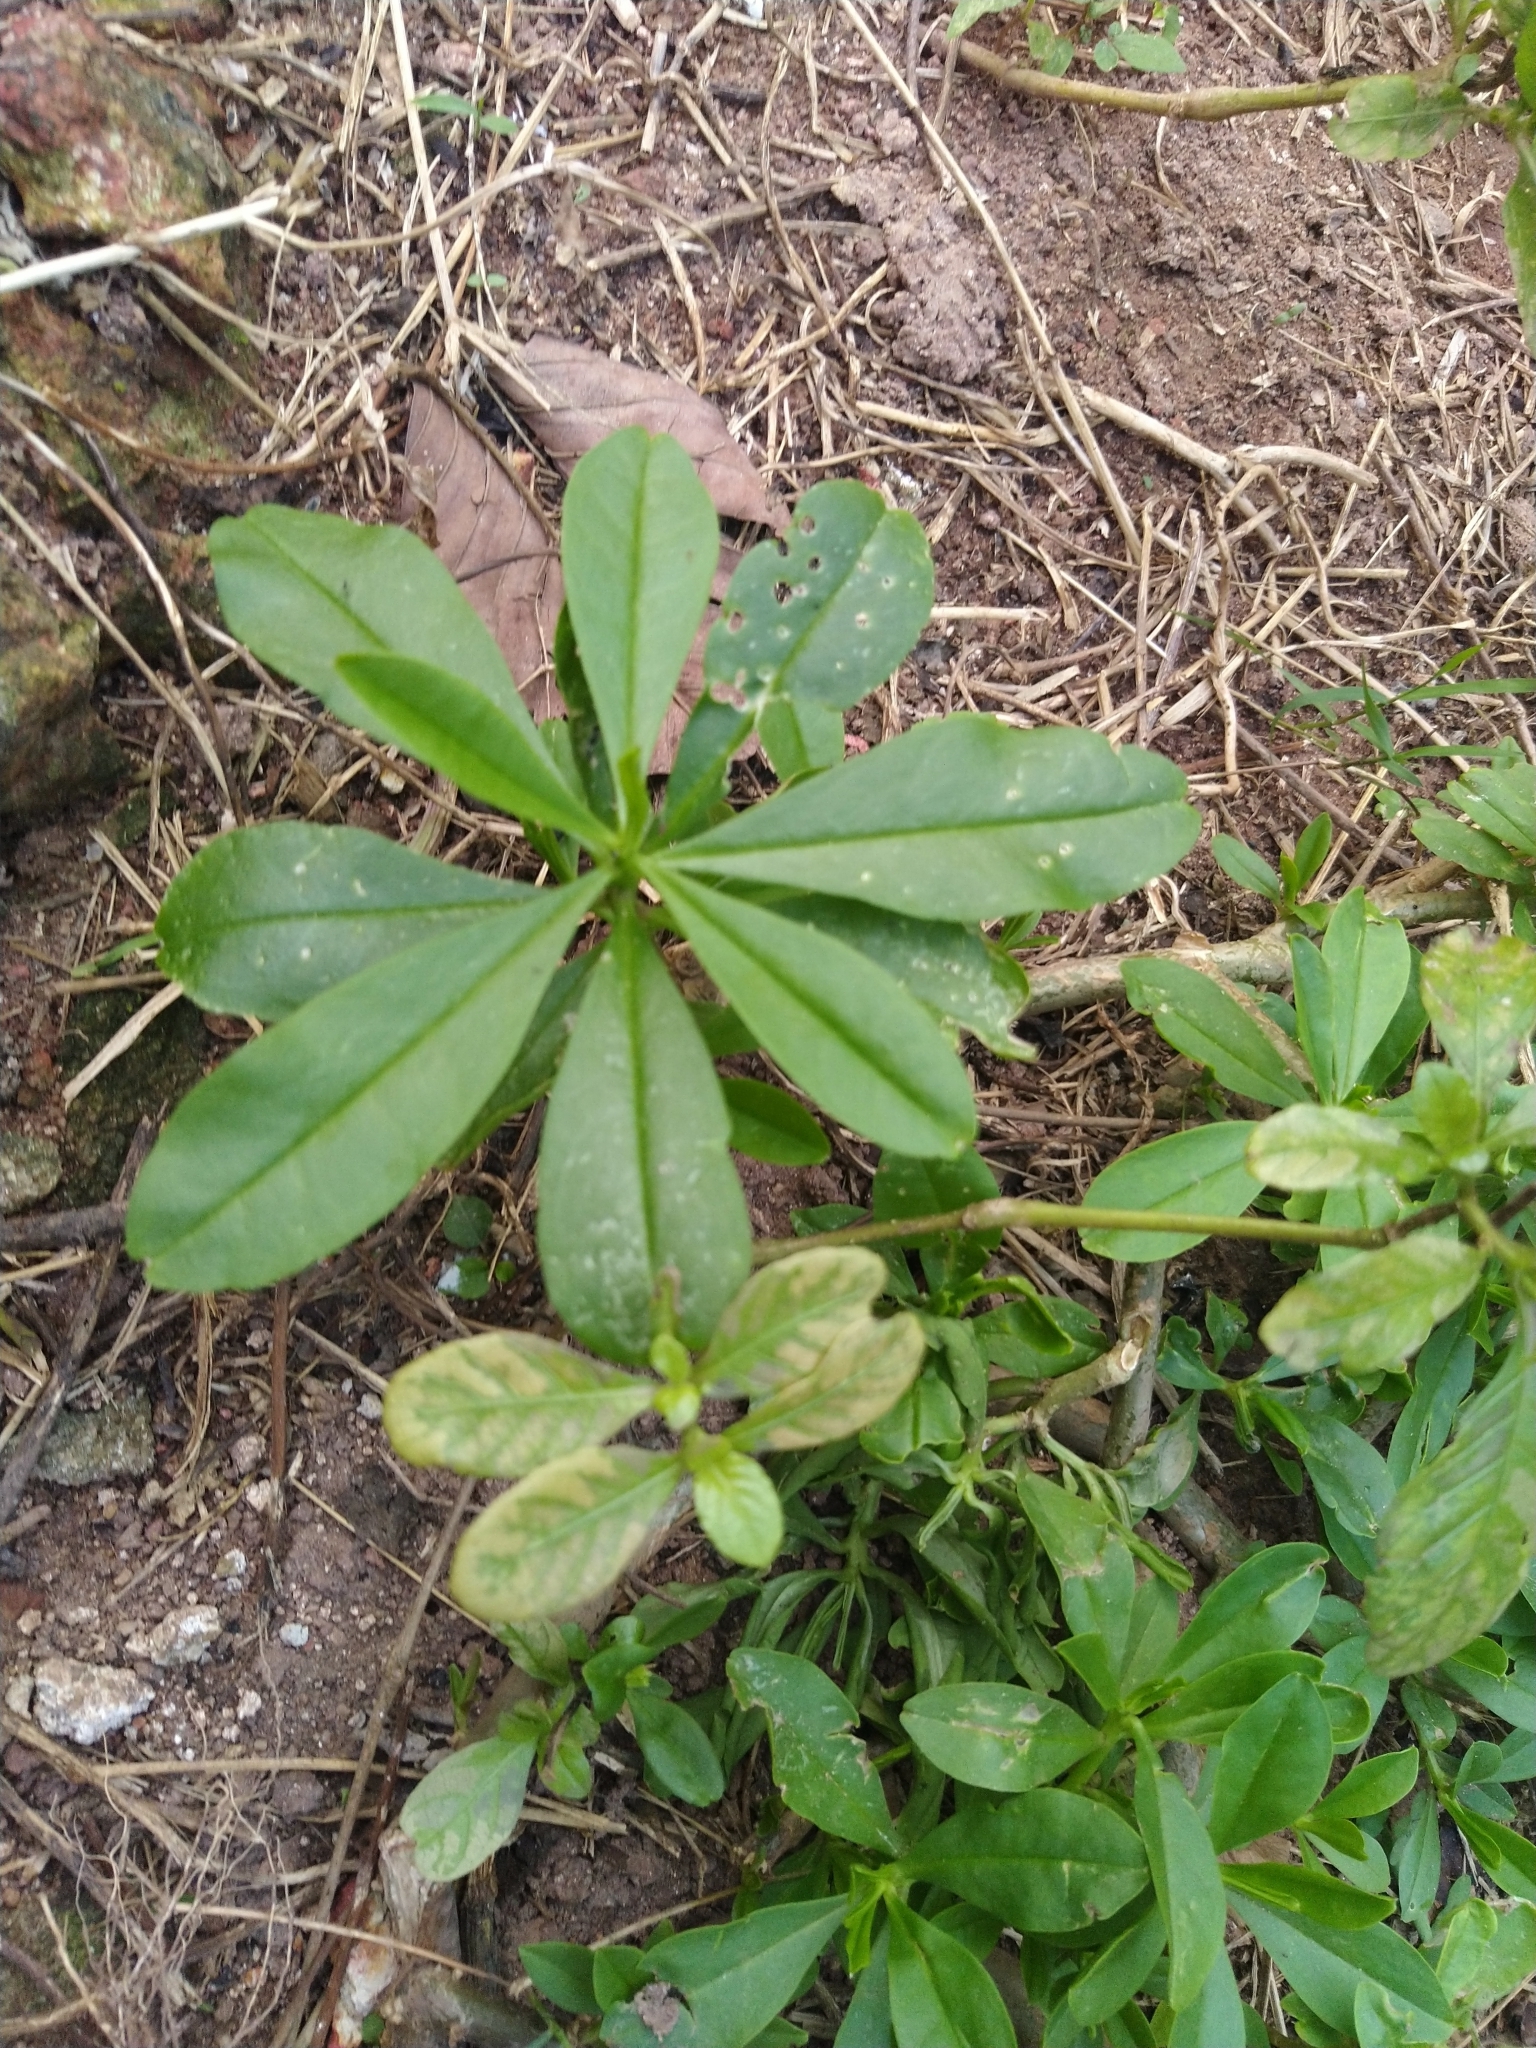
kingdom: Plantae
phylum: Tracheophyta
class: Magnoliopsida
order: Caryophyllales
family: Talinaceae
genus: Talinum
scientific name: Talinum fruticosum
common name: Verdolaga-francesa
